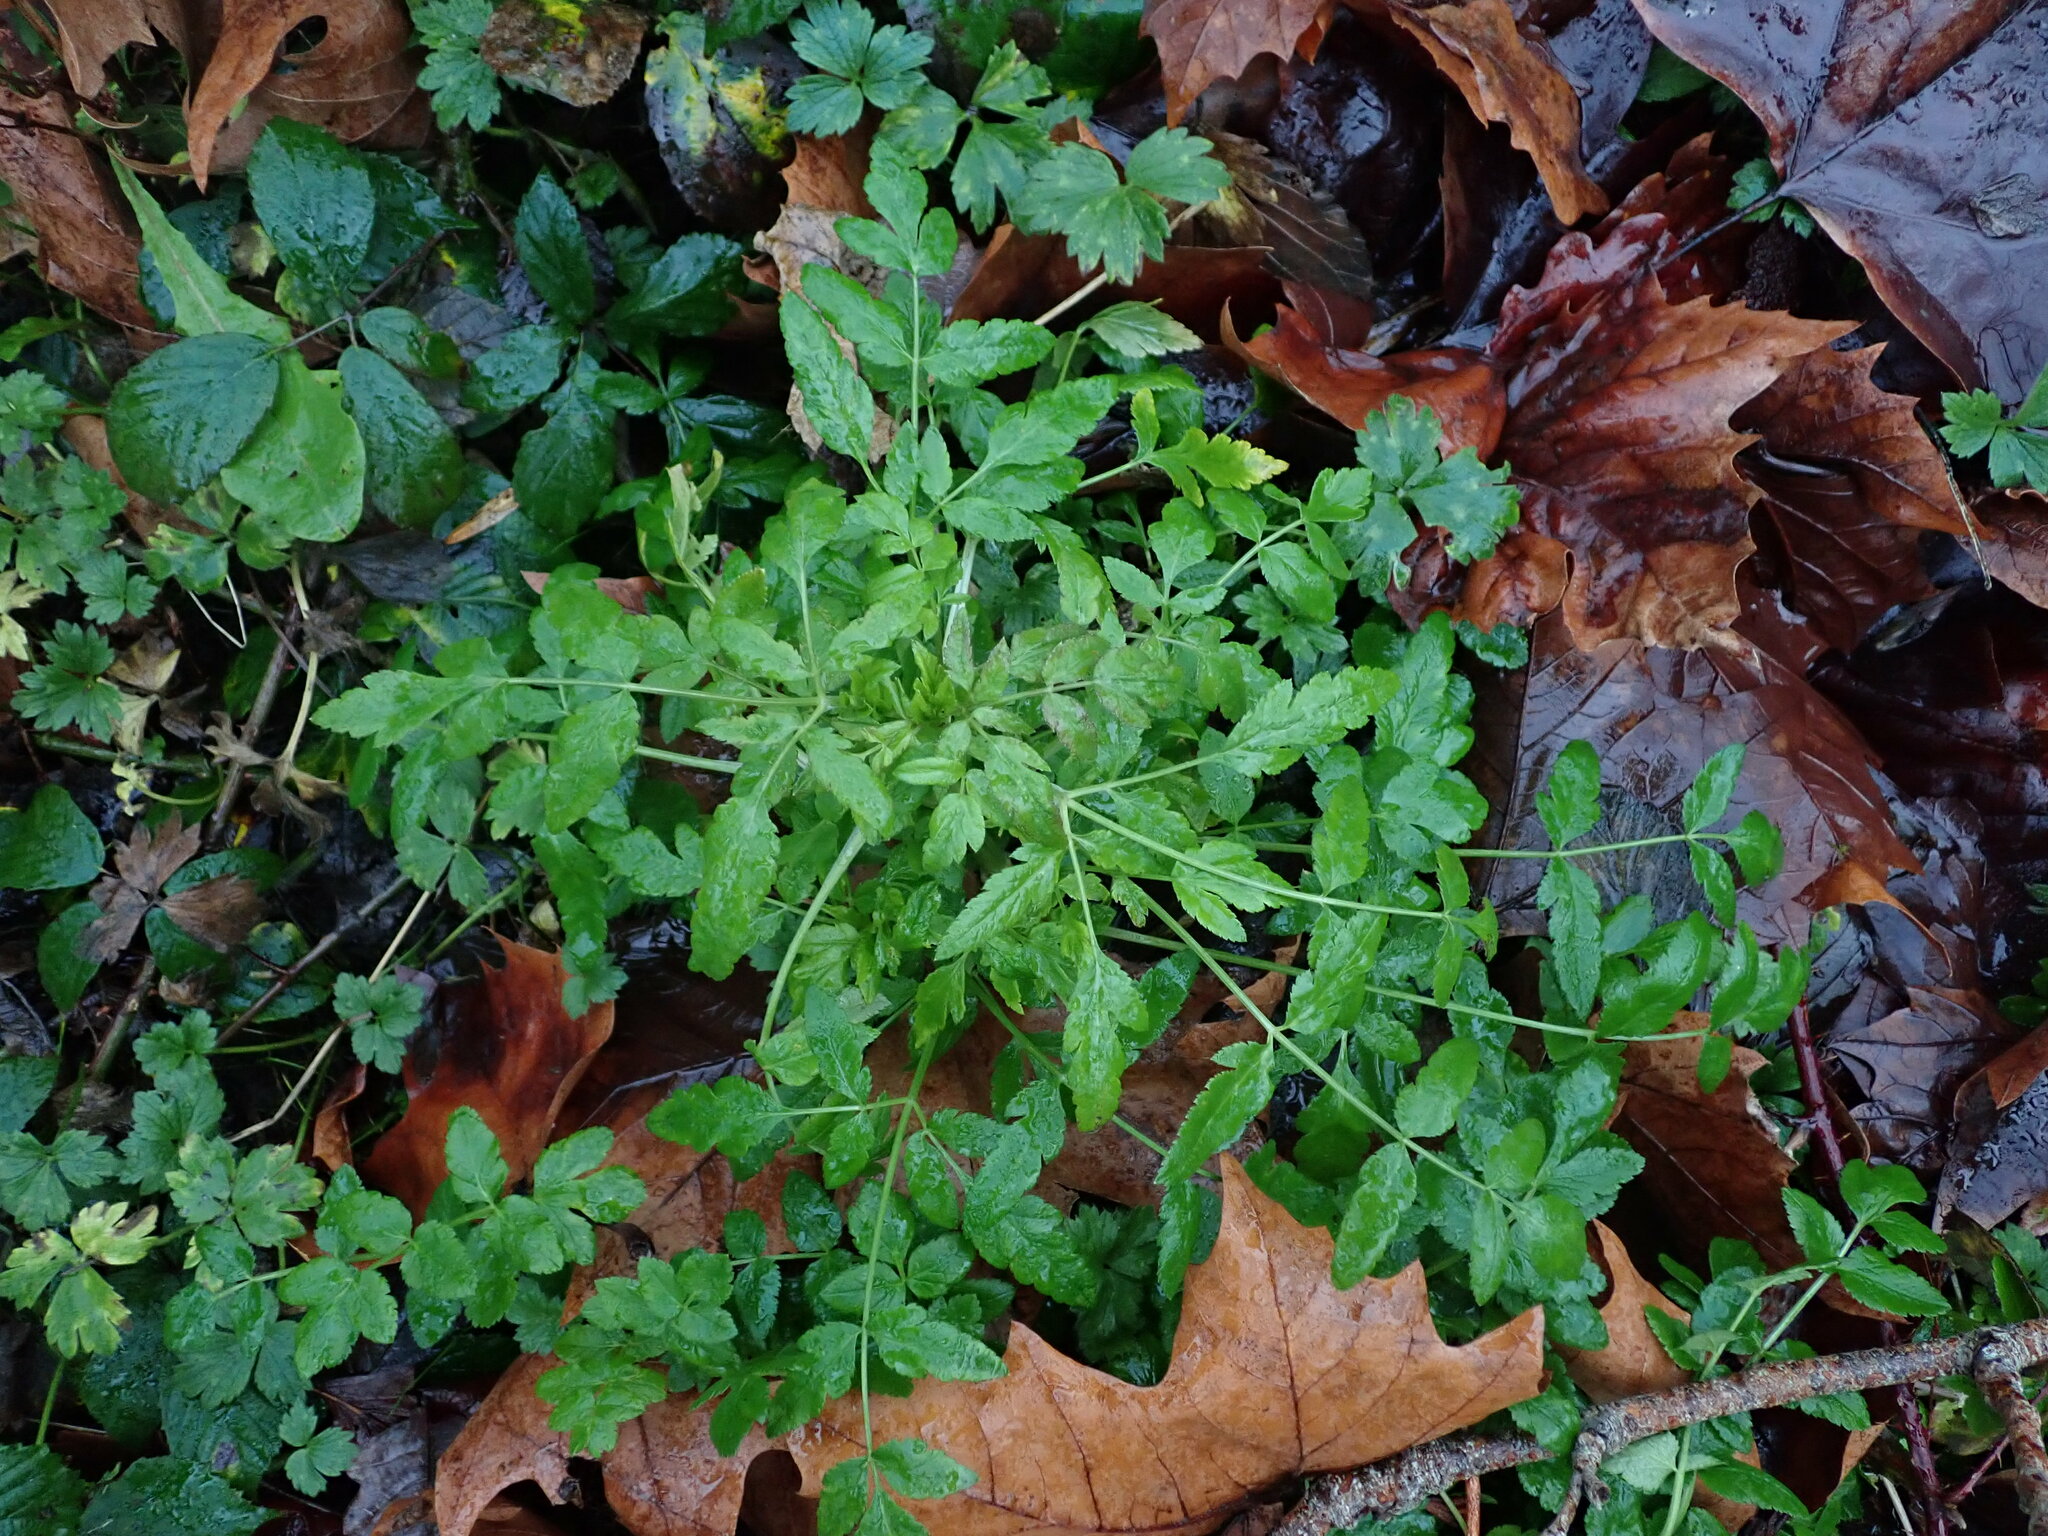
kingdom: Plantae
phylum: Tracheophyta
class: Magnoliopsida
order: Apiales
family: Apiaceae
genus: Sison
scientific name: Sison amomum
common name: Stone-parsley
